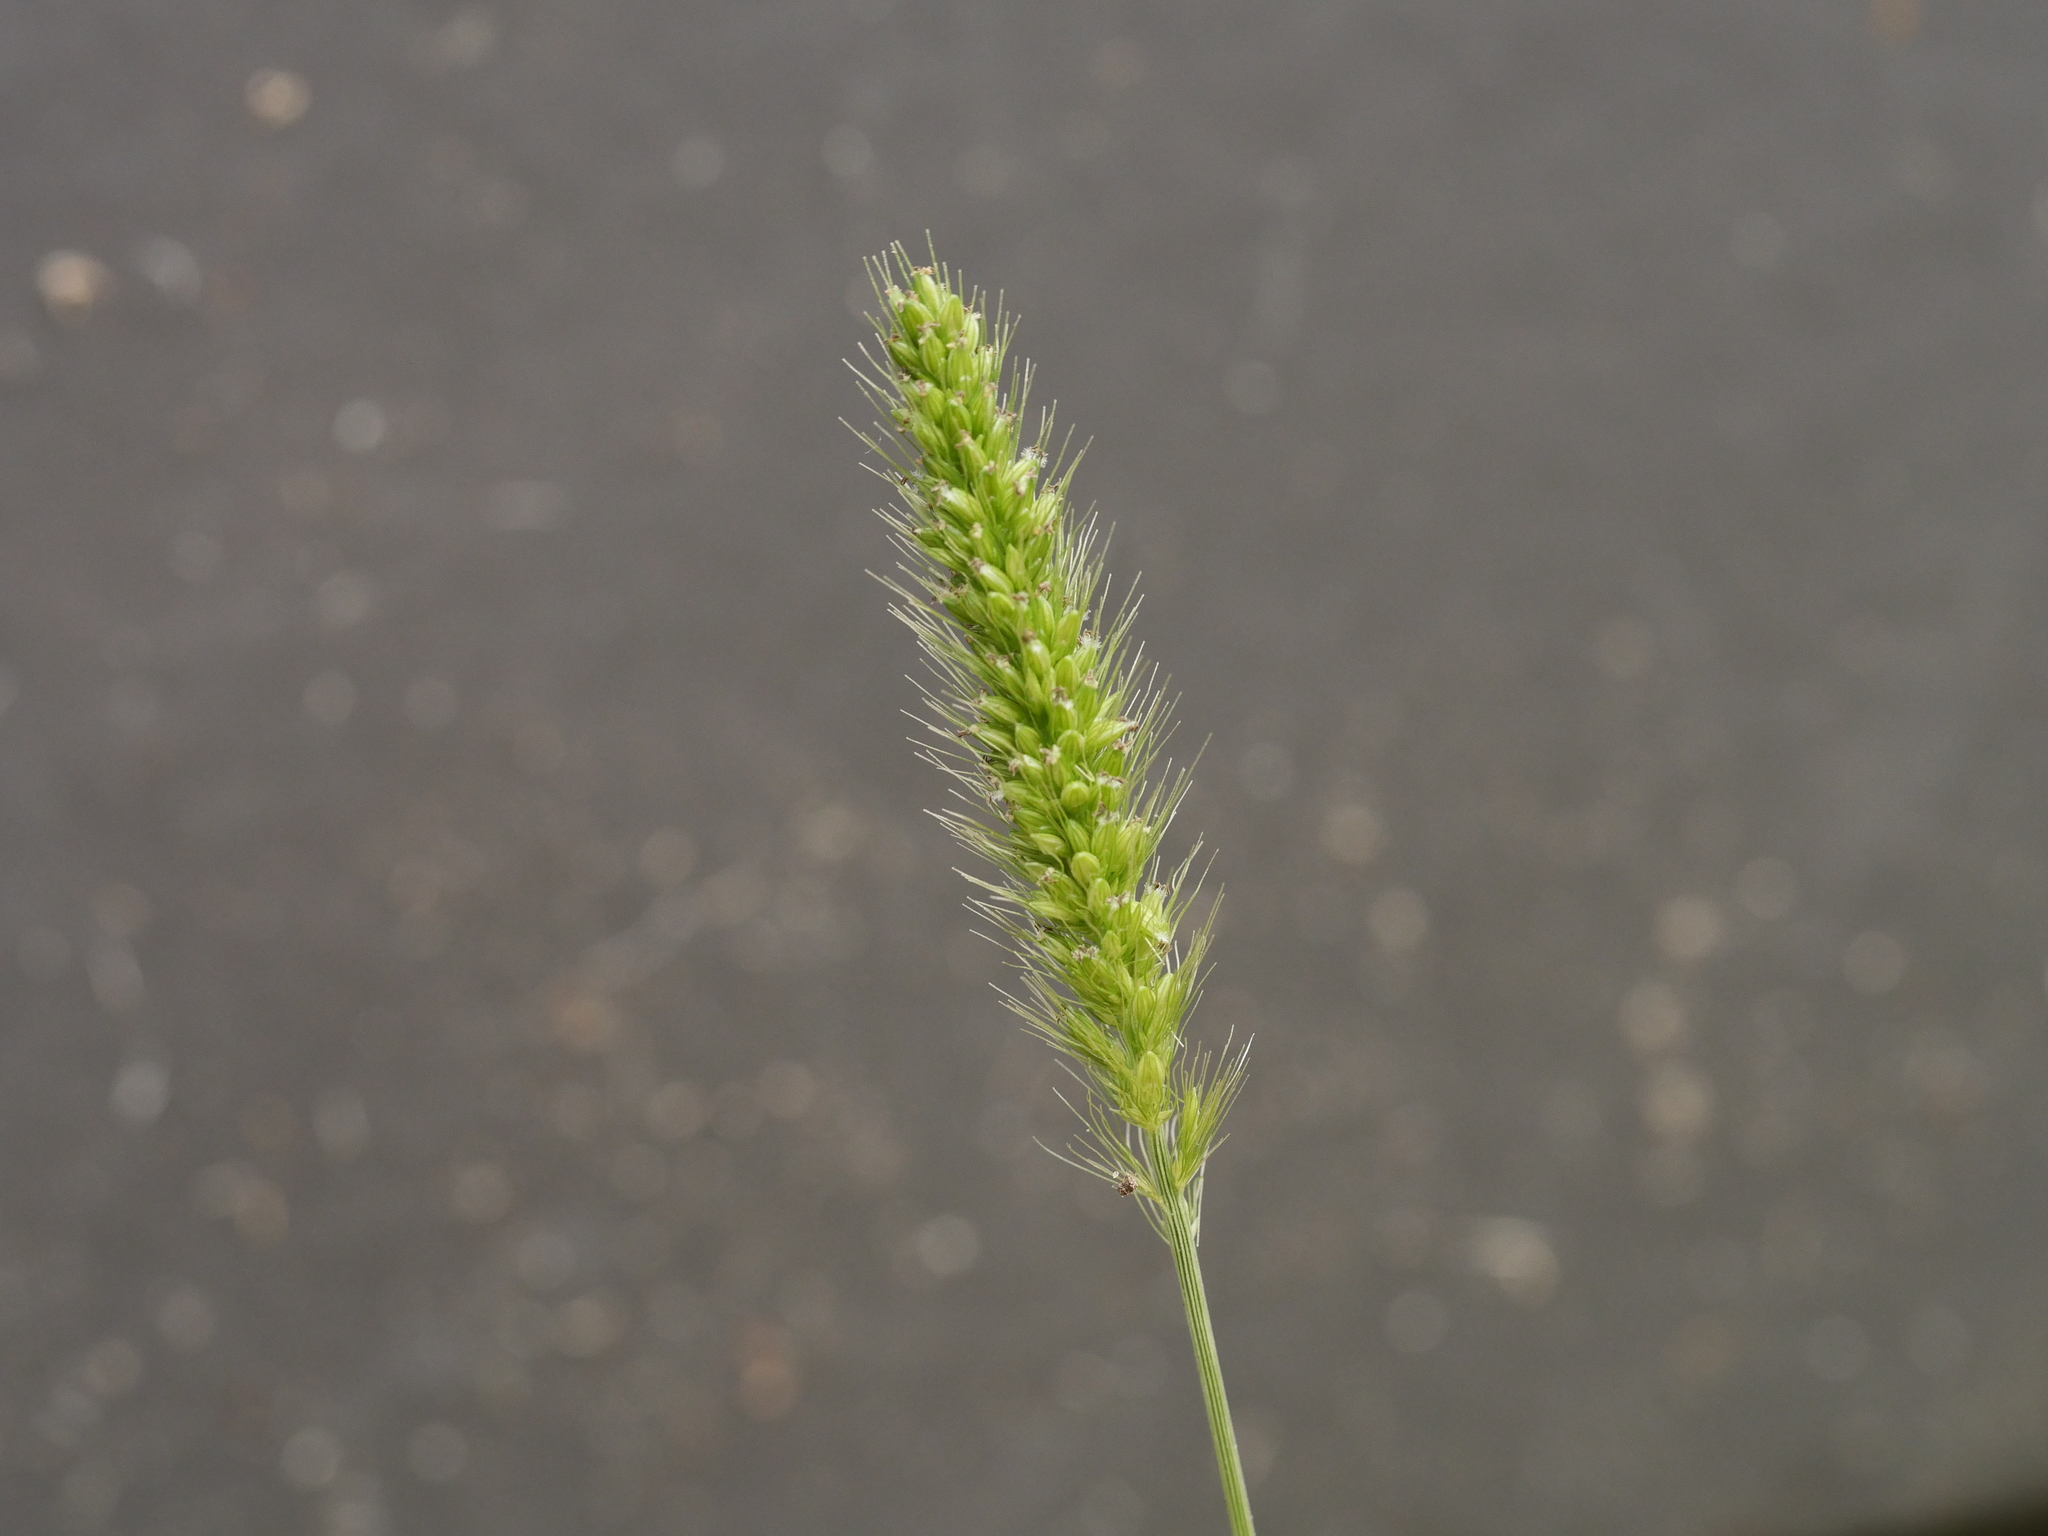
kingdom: Plantae
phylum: Tracheophyta
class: Liliopsida
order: Poales
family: Poaceae
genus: Setaria
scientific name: Setaria viridis
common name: Green bristlegrass
